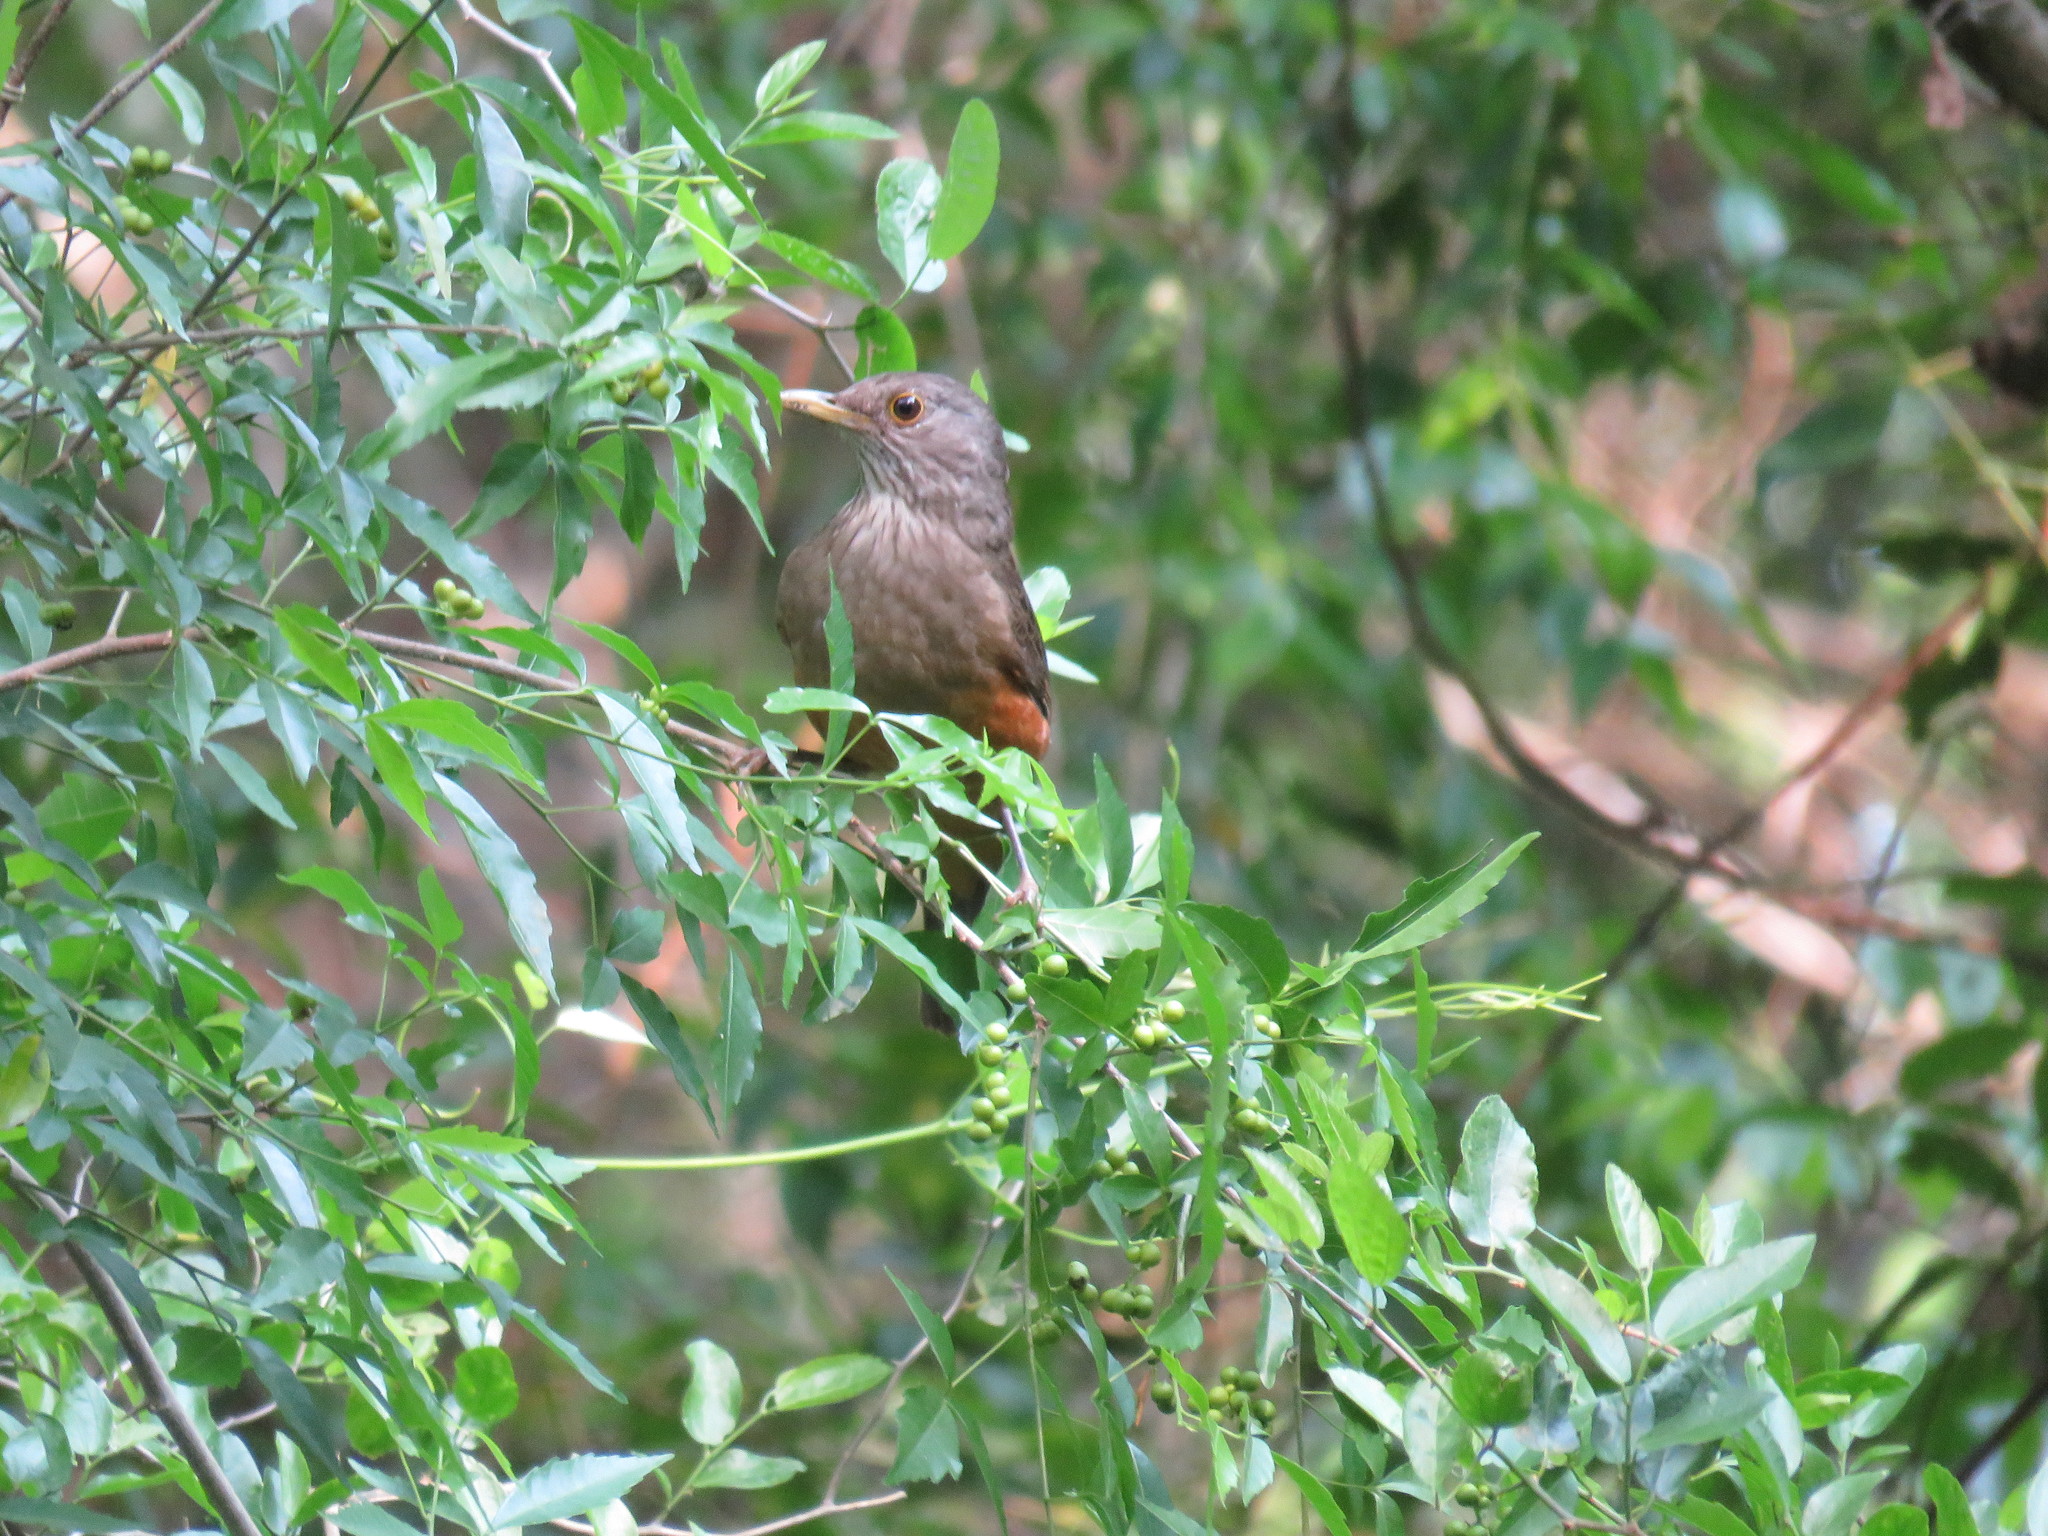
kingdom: Animalia
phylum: Chordata
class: Aves
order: Passeriformes
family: Turdidae
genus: Turdus
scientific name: Turdus rufiventris
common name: Rufous-bellied thrush
